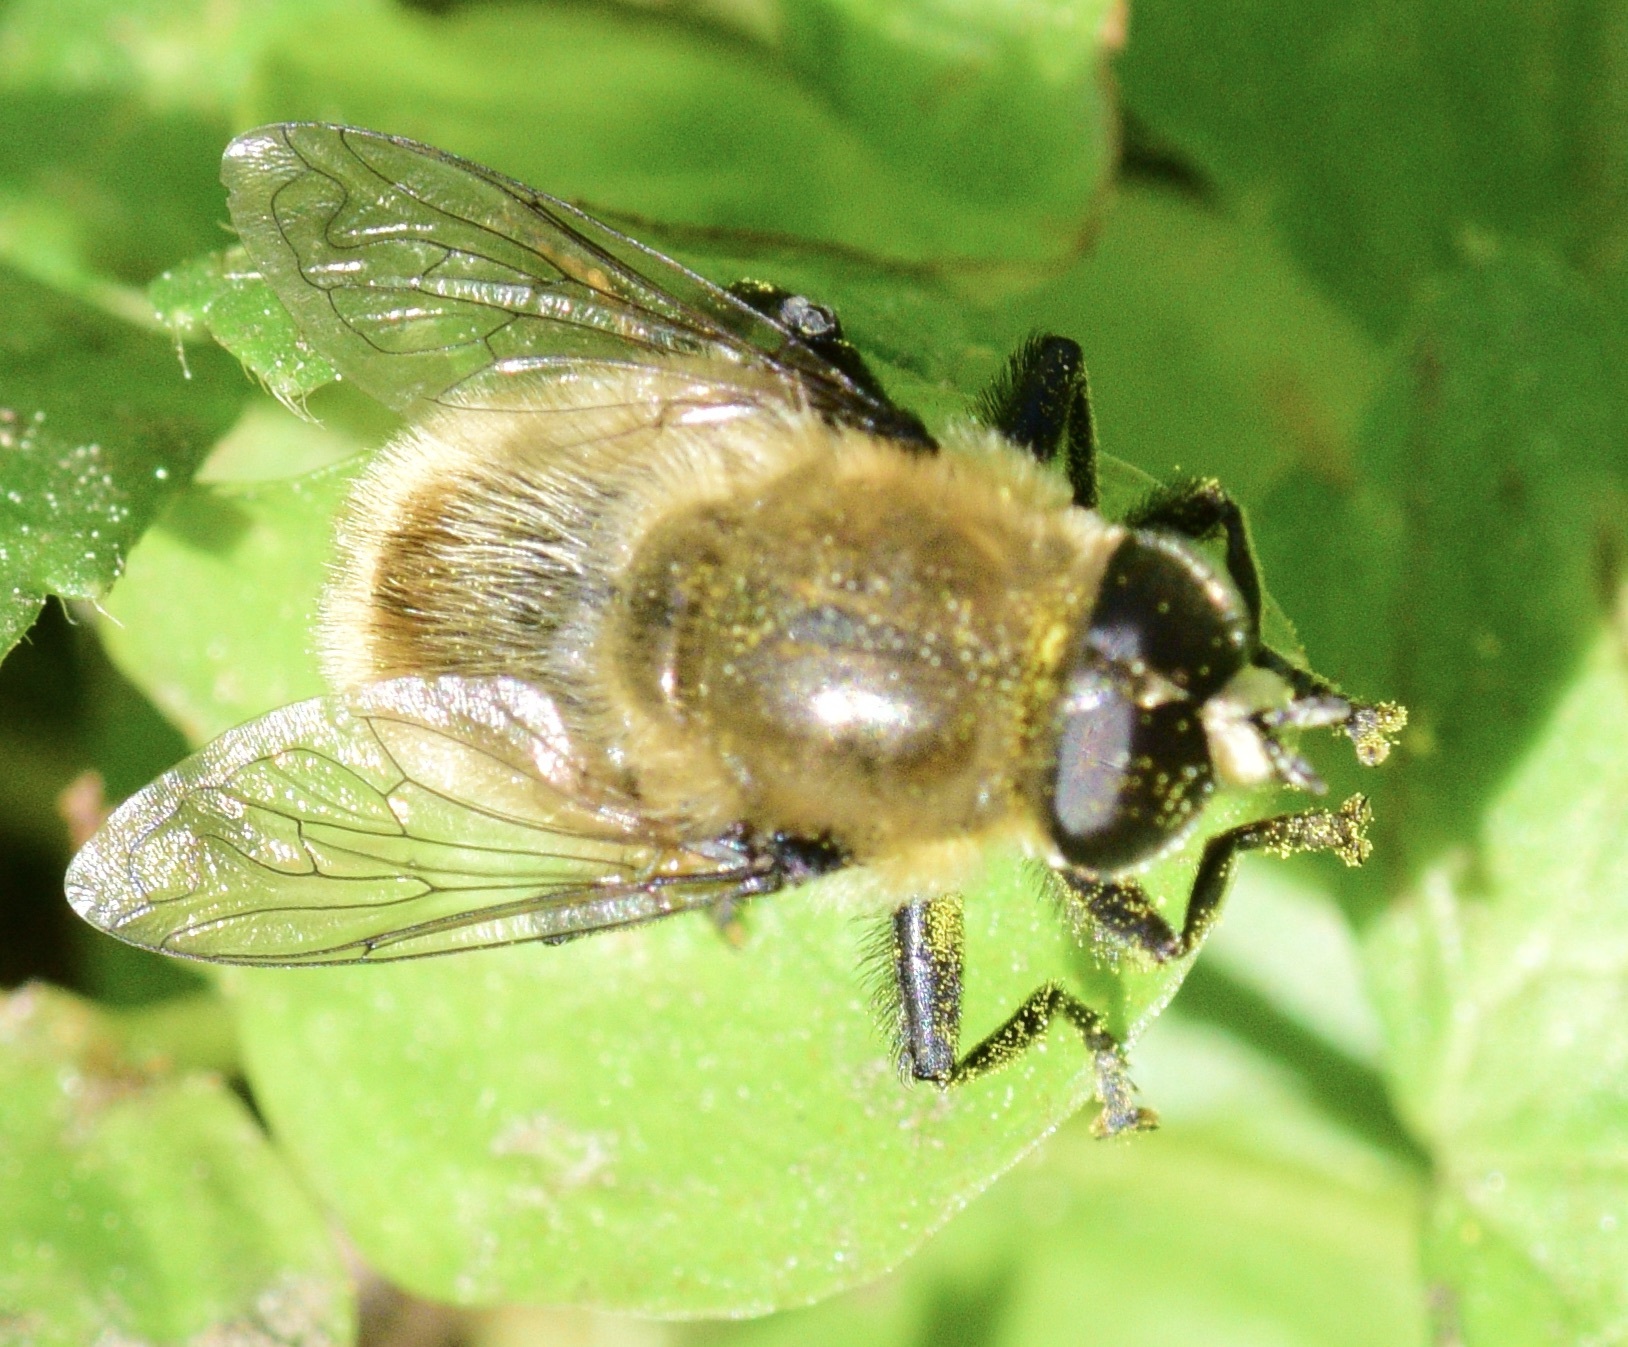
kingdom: Animalia
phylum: Arthropoda
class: Insecta
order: Diptera
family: Syrphidae
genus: Merodon
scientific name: Merodon equestris
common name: Greater bulb-fly
